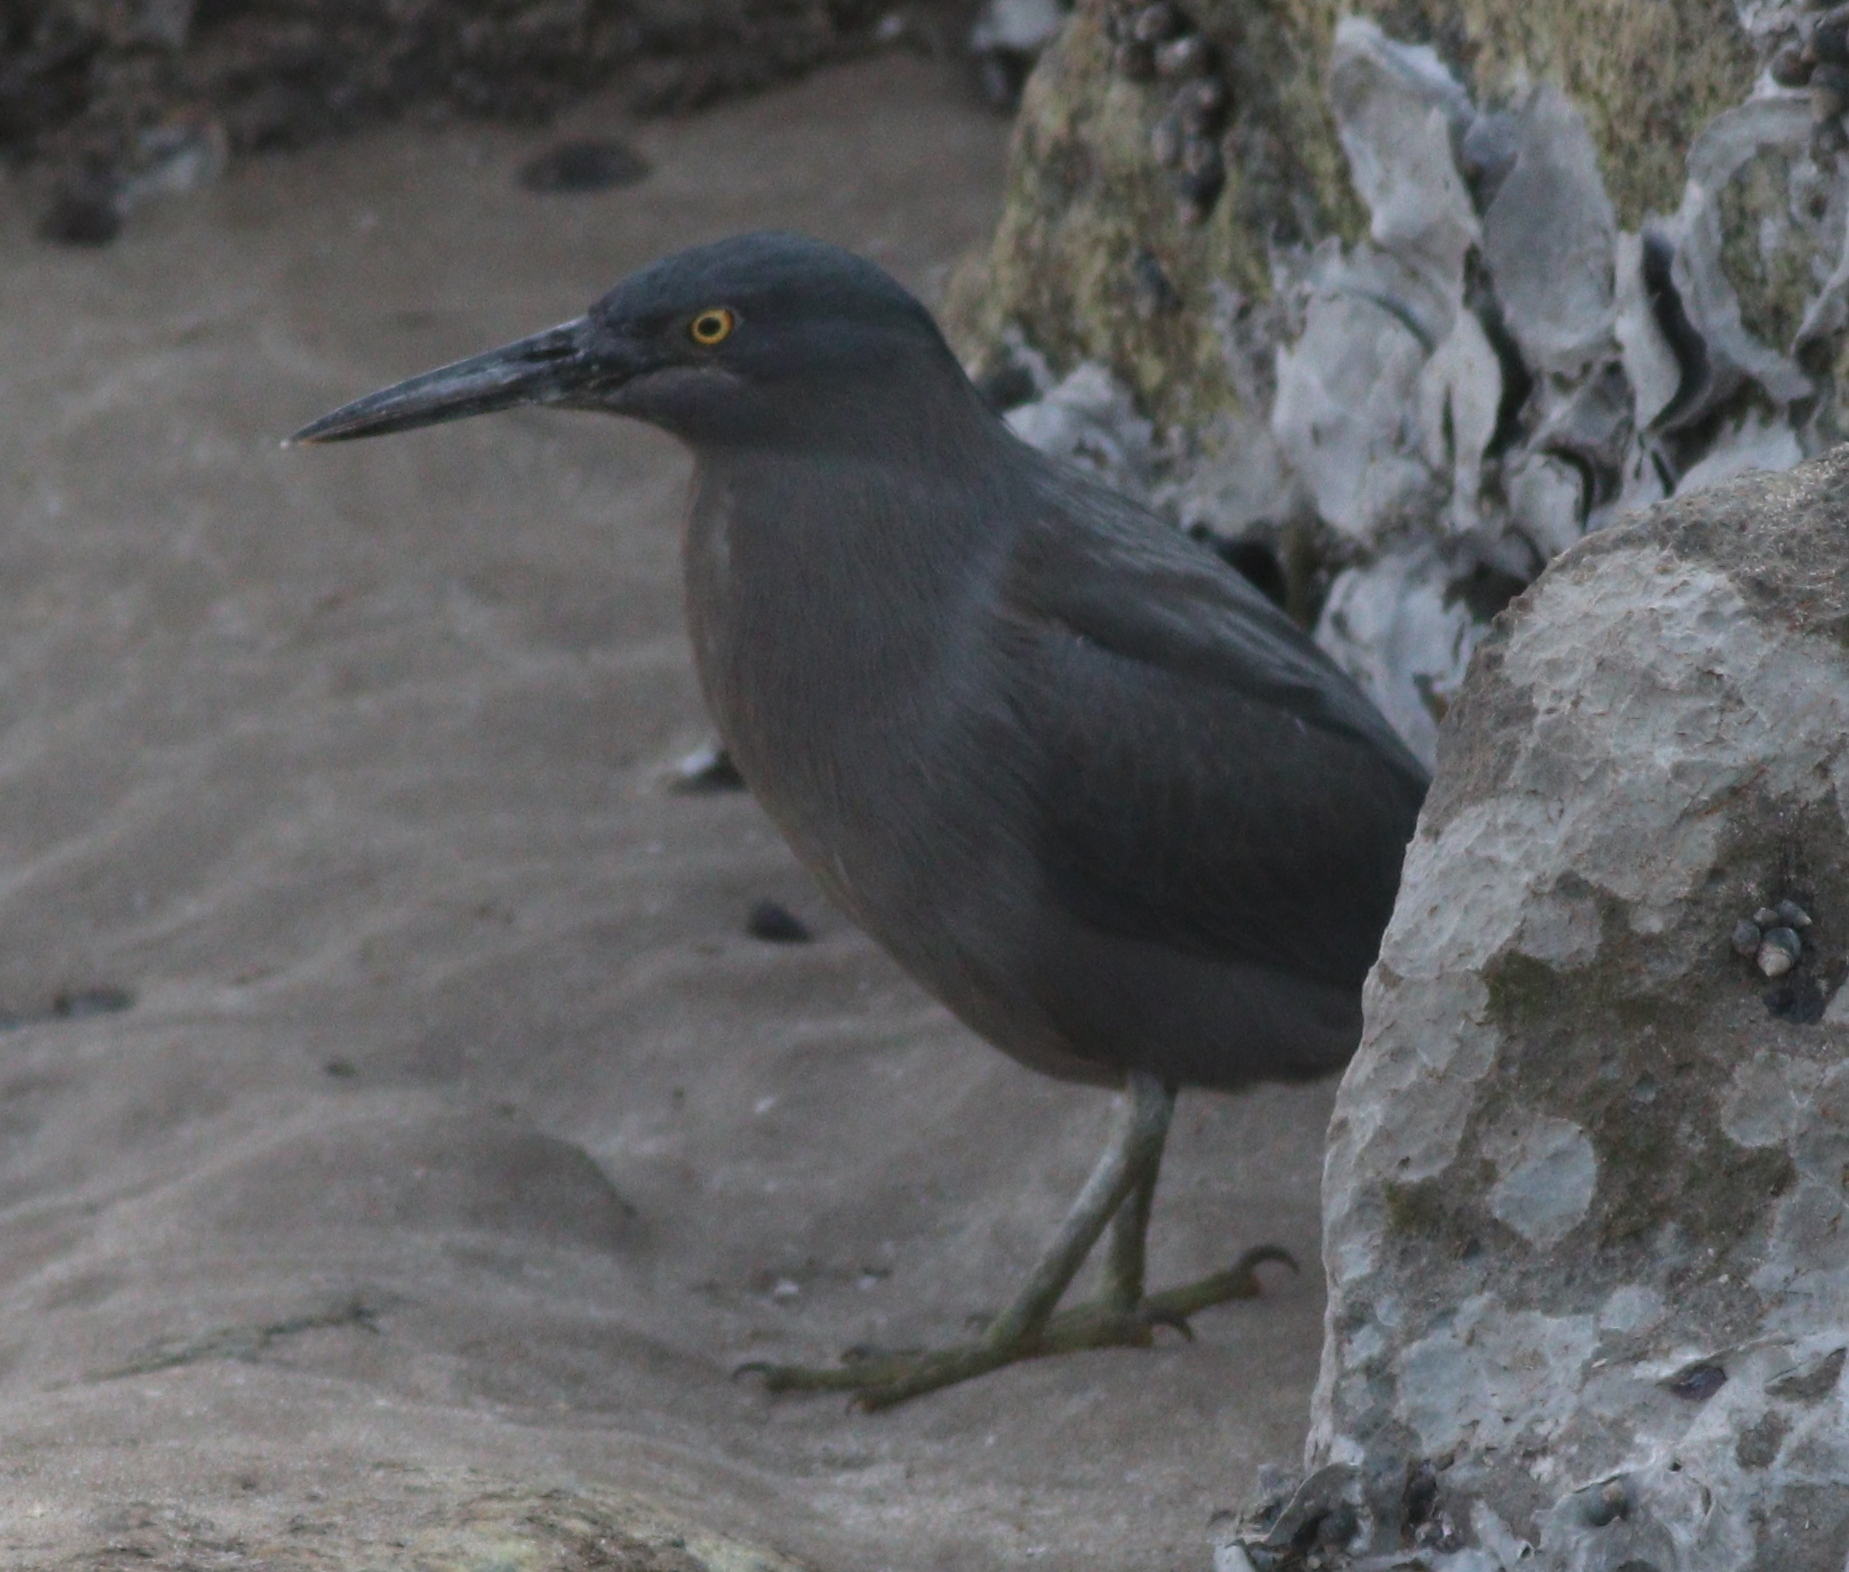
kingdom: Animalia
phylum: Chordata
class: Aves
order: Pelecaniformes
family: Ardeidae
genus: Butorides
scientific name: Butorides striata
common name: Striated heron
